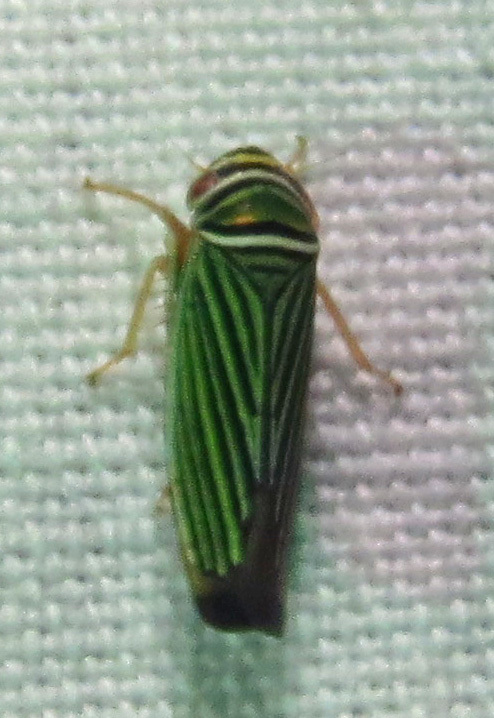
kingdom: Animalia
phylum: Arthropoda
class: Insecta
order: Hemiptera
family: Cicadellidae
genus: Tylozygus
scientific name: Tylozygus bifidus
